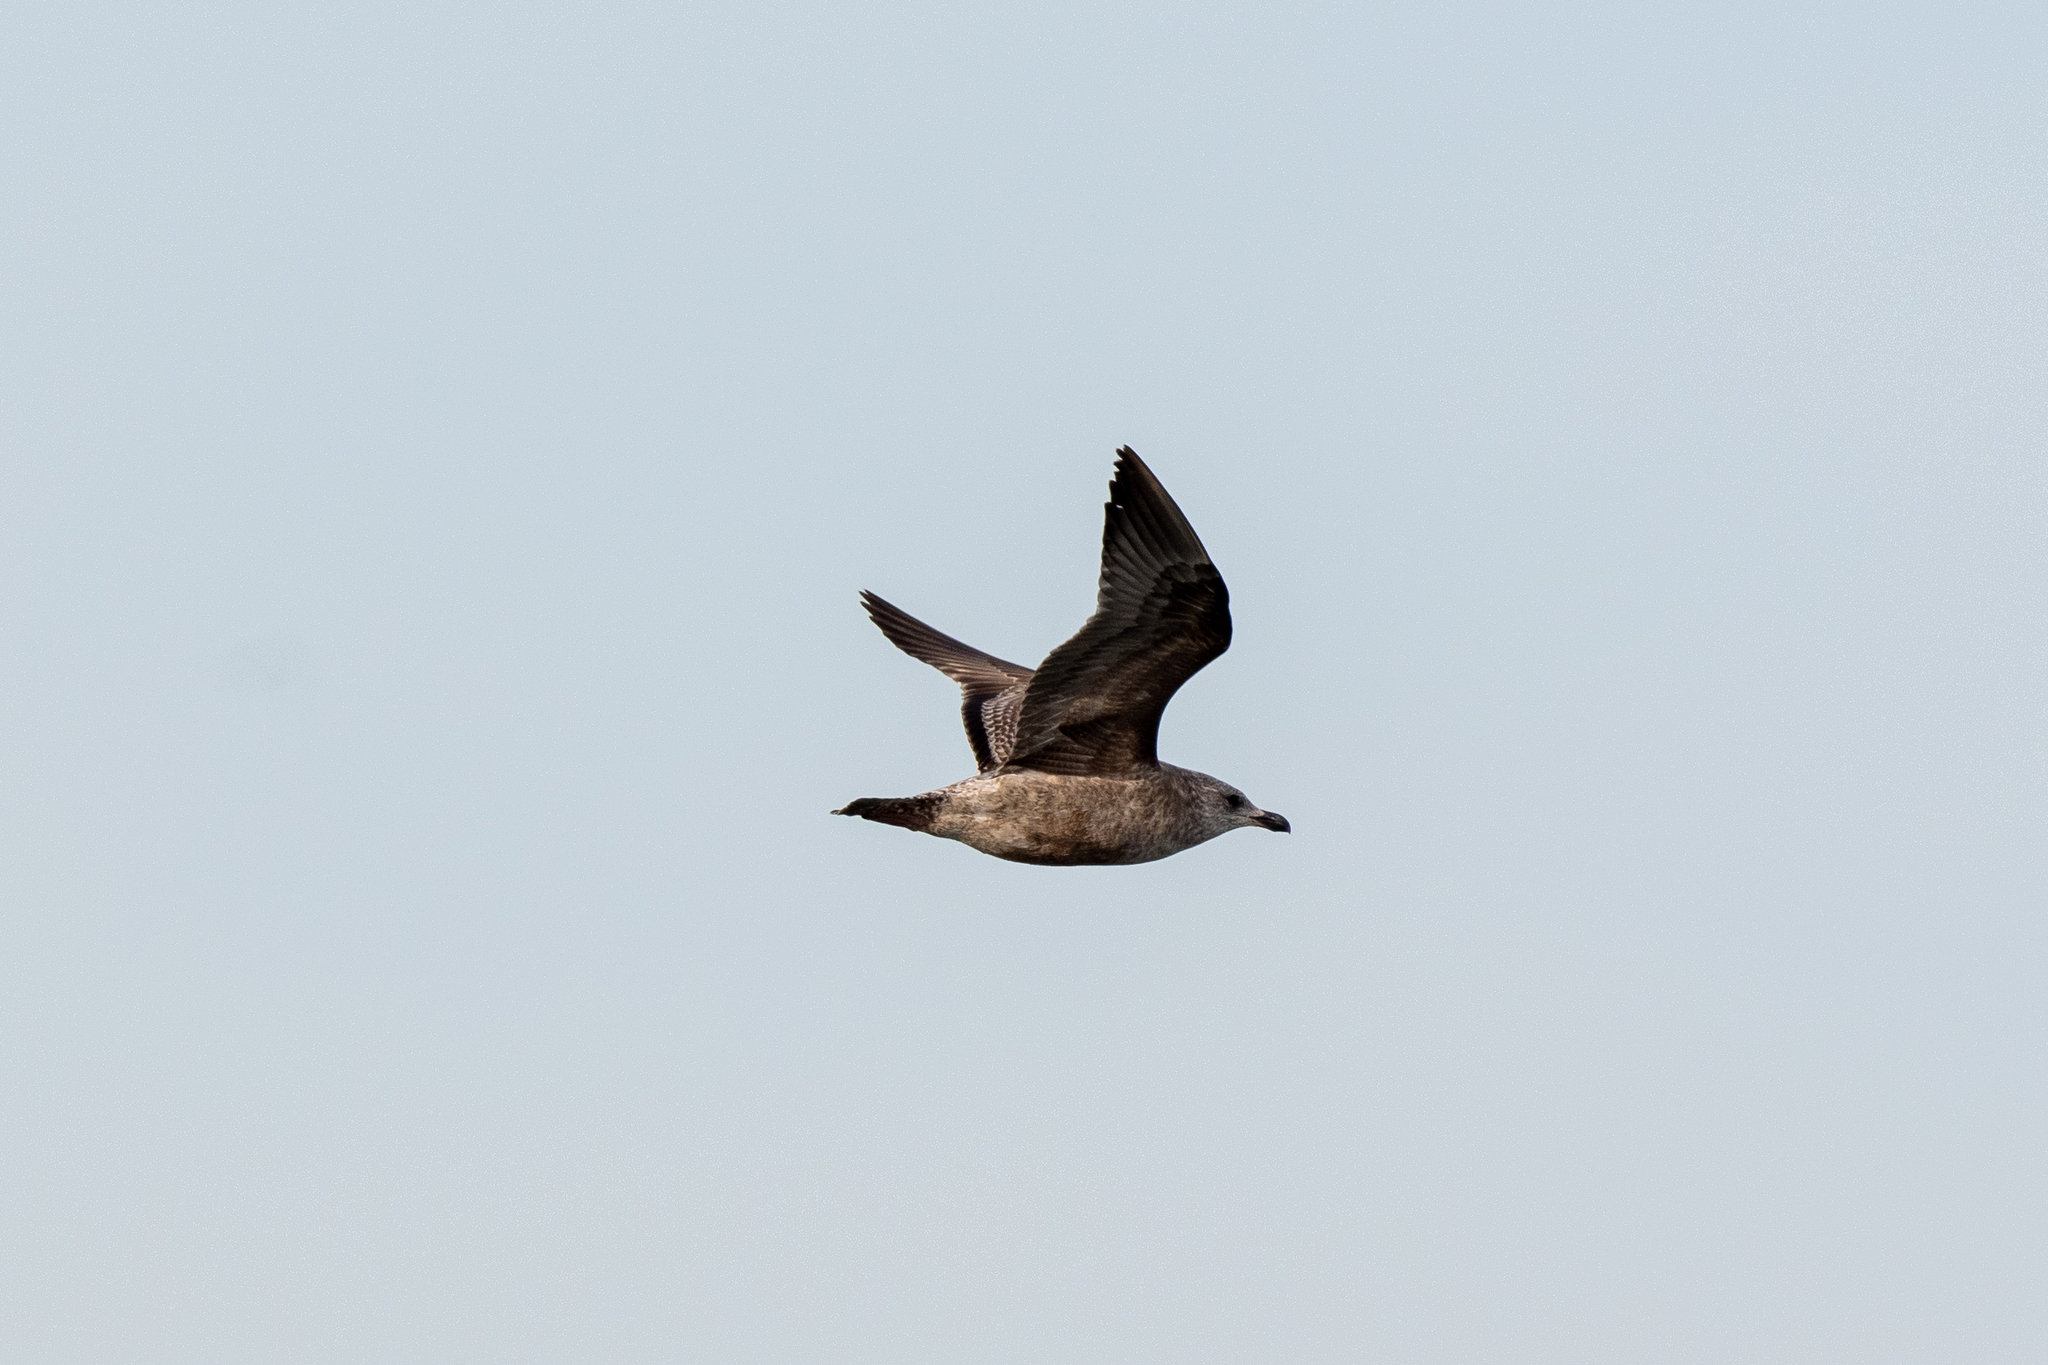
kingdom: Animalia
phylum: Chordata
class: Aves
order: Charadriiformes
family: Laridae
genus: Larus
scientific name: Larus argentatus
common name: Herring gull
